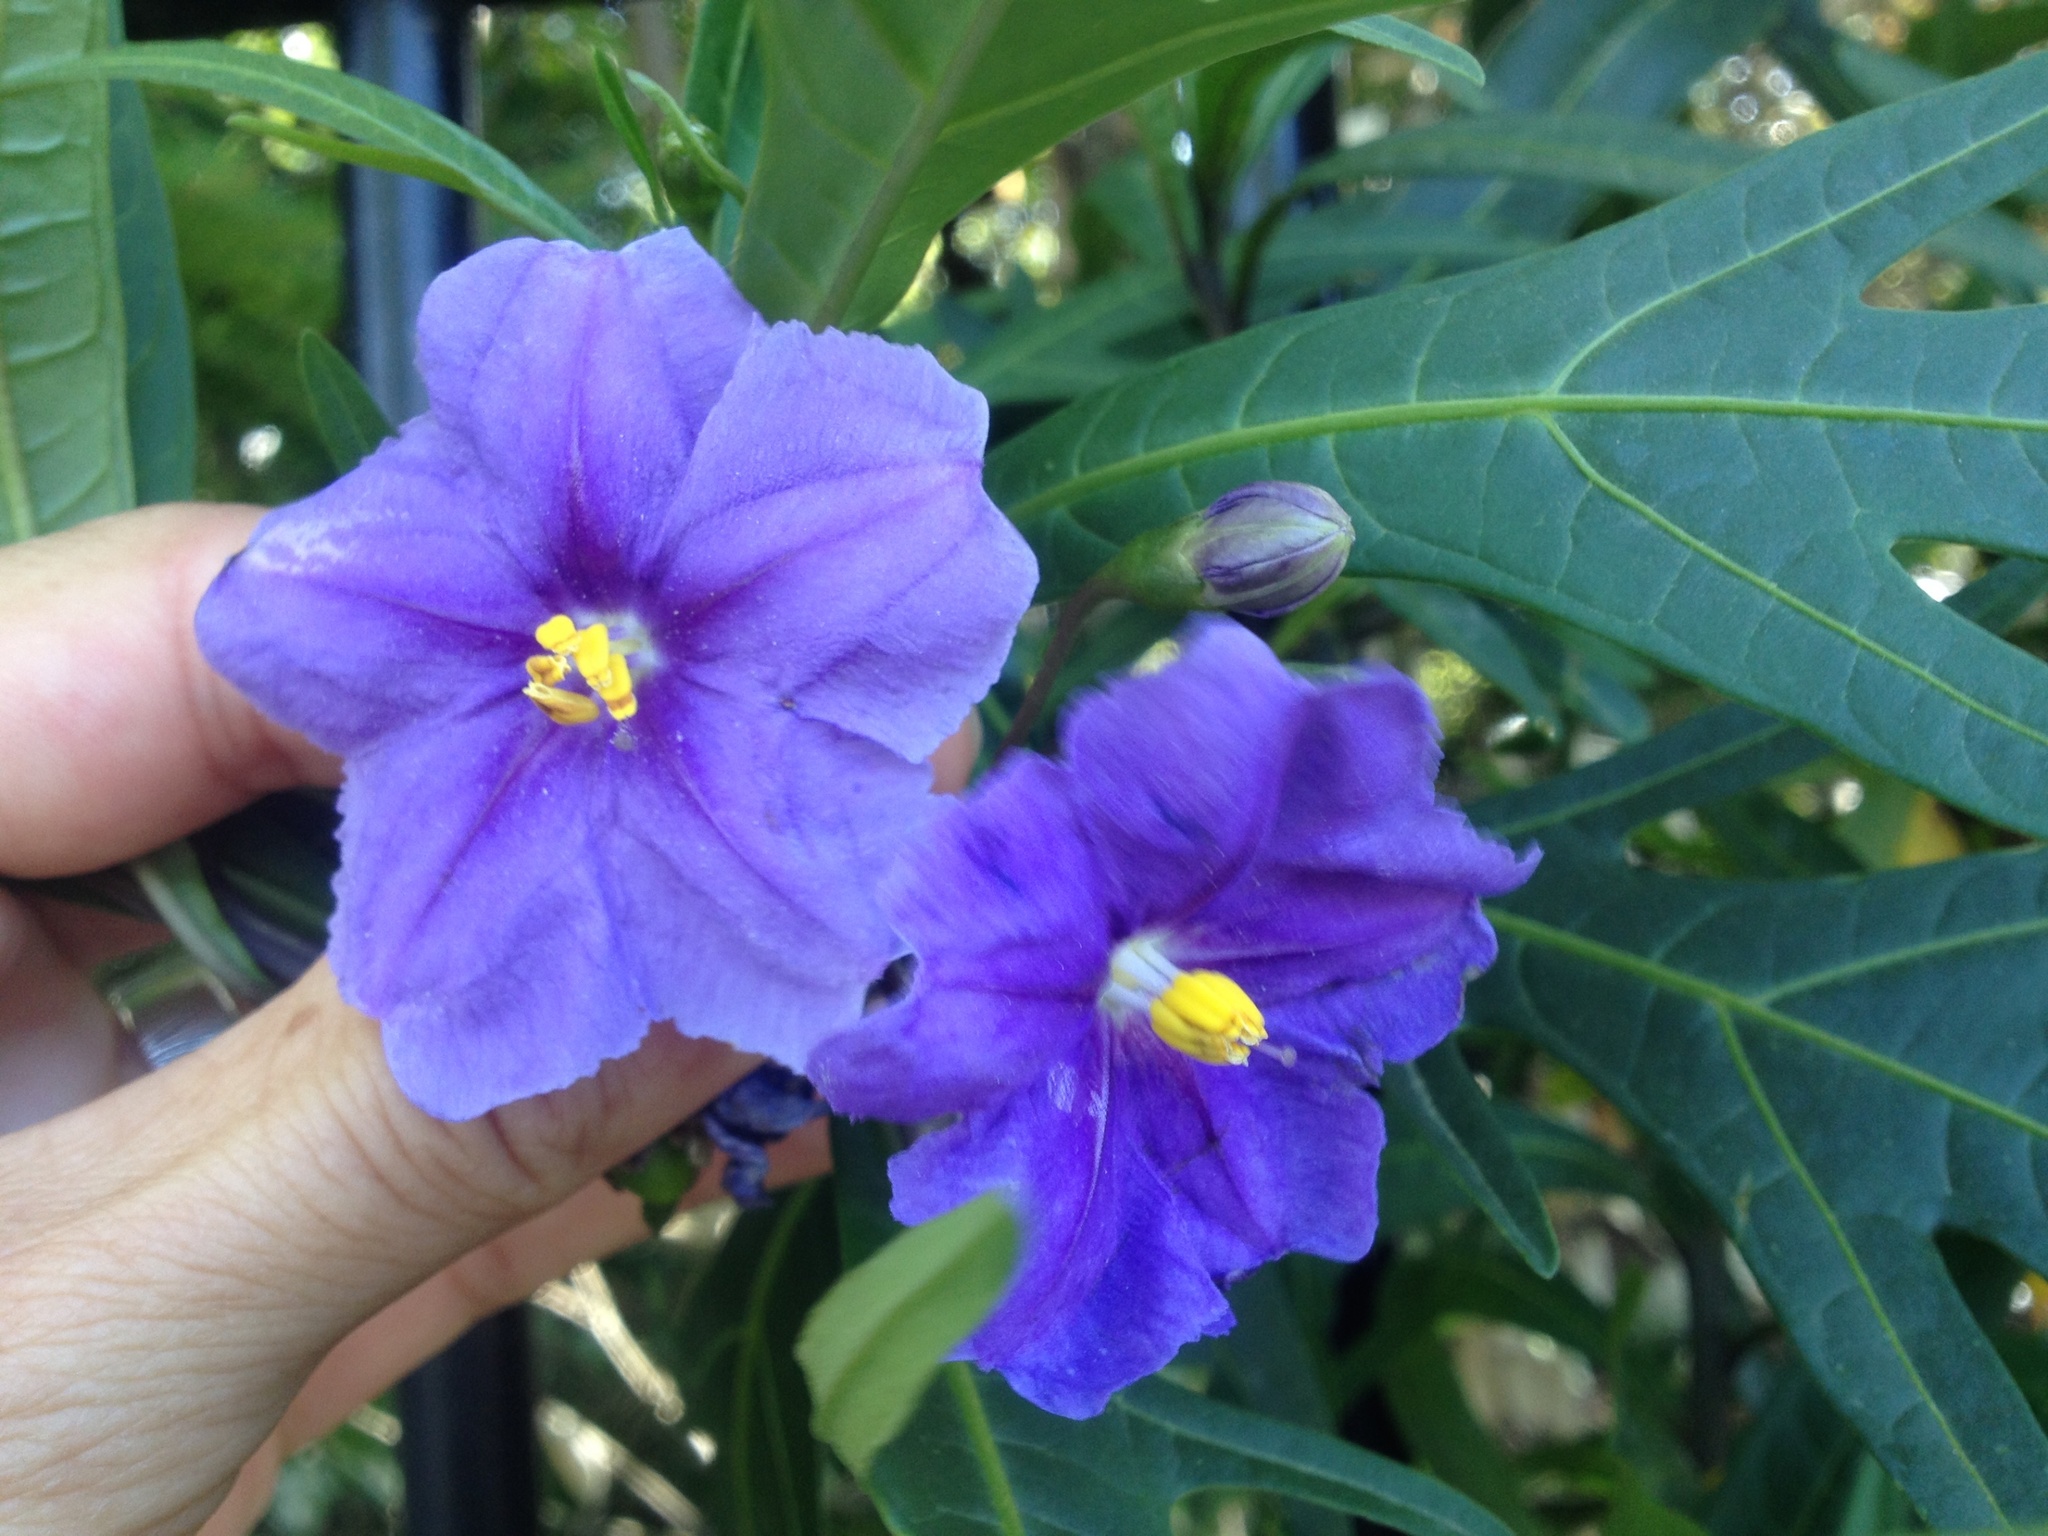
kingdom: Plantae
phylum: Tracheophyta
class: Magnoliopsida
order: Solanales
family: Solanaceae
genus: Solanum
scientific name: Solanum laciniatum
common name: Kangaroo-apple
